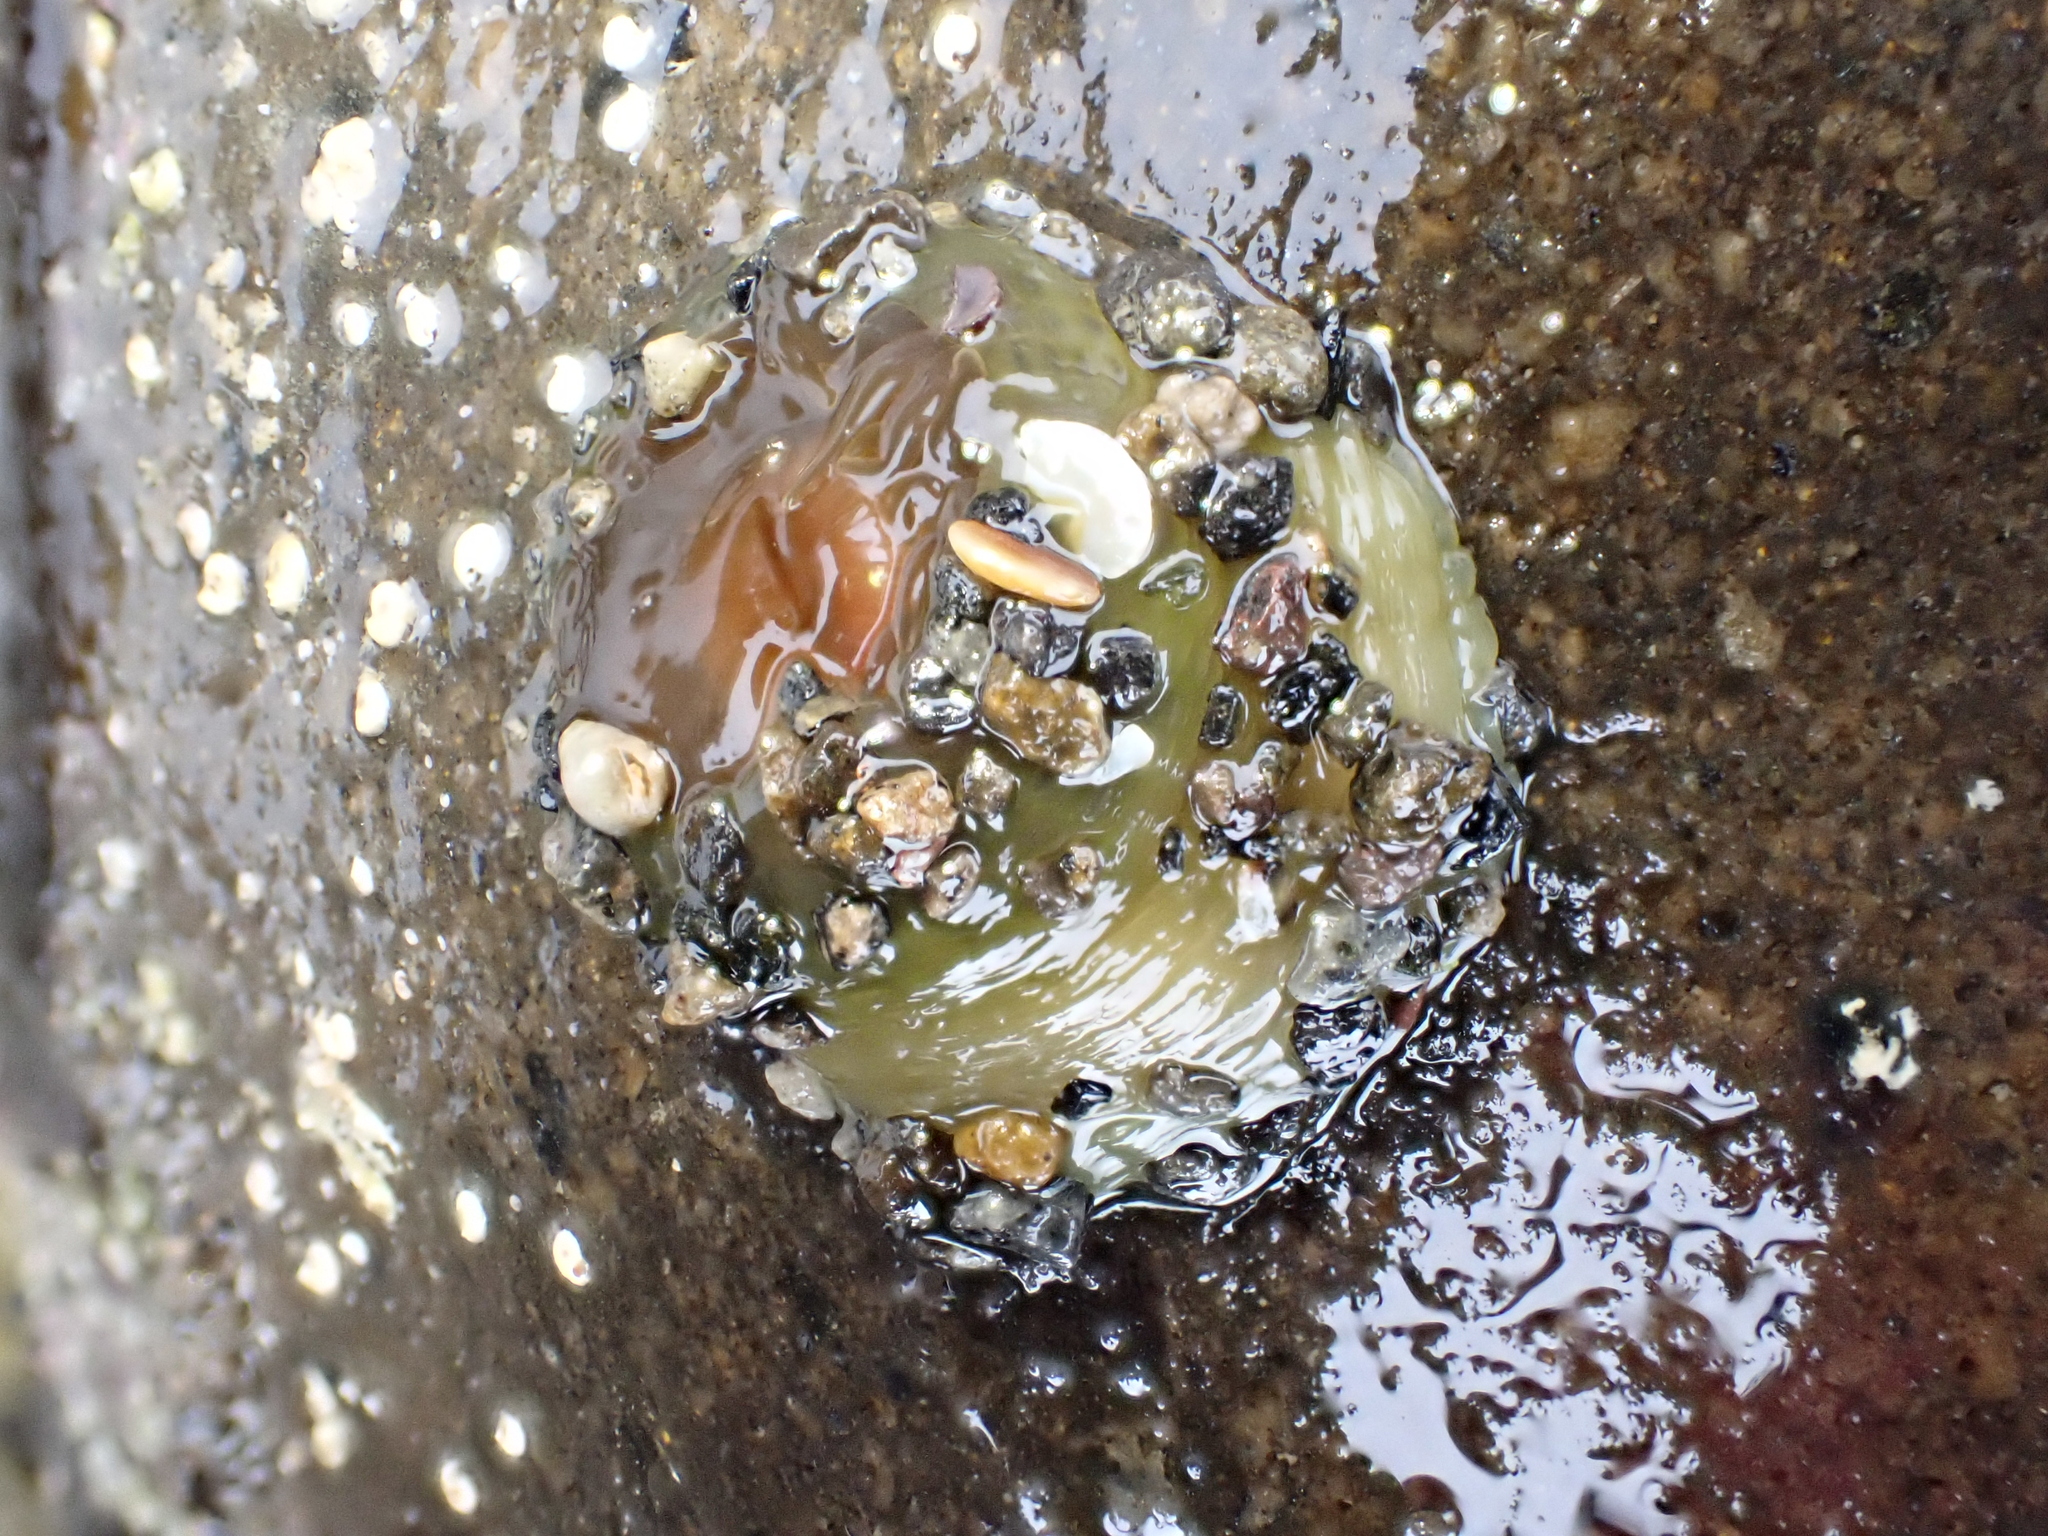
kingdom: Animalia
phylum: Cnidaria
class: Anthozoa
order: Actiniaria
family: Actiniidae
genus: Isactinia
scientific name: Isactinia olivacea
